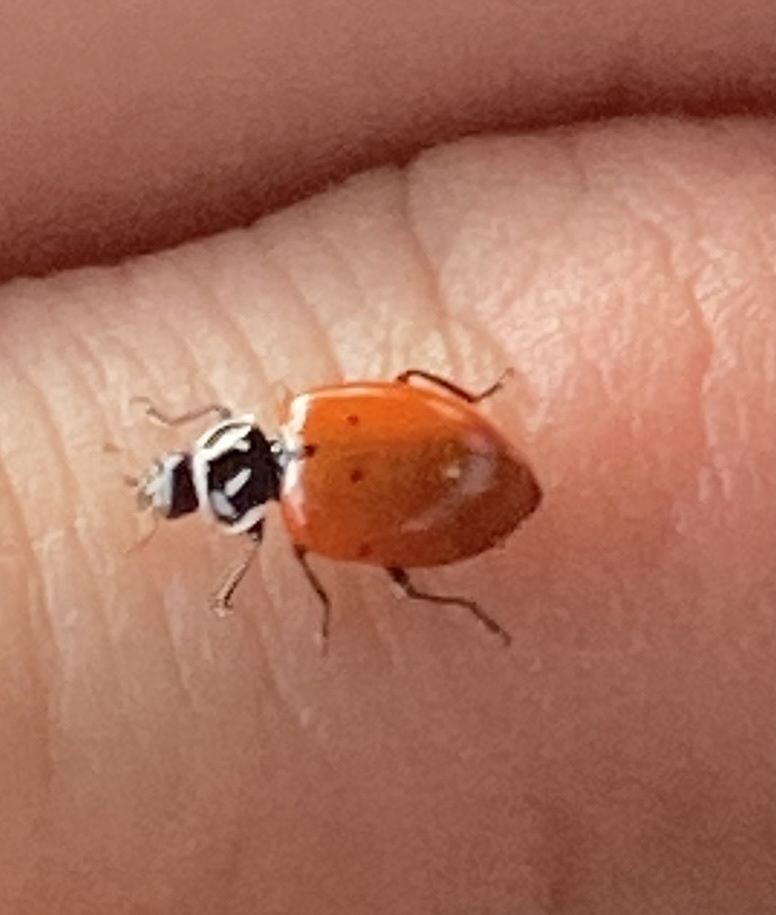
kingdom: Animalia
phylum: Arthropoda
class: Insecta
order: Coleoptera
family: Coccinellidae
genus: Hippodamia
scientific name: Hippodamia convergens
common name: Convergent lady beetle
